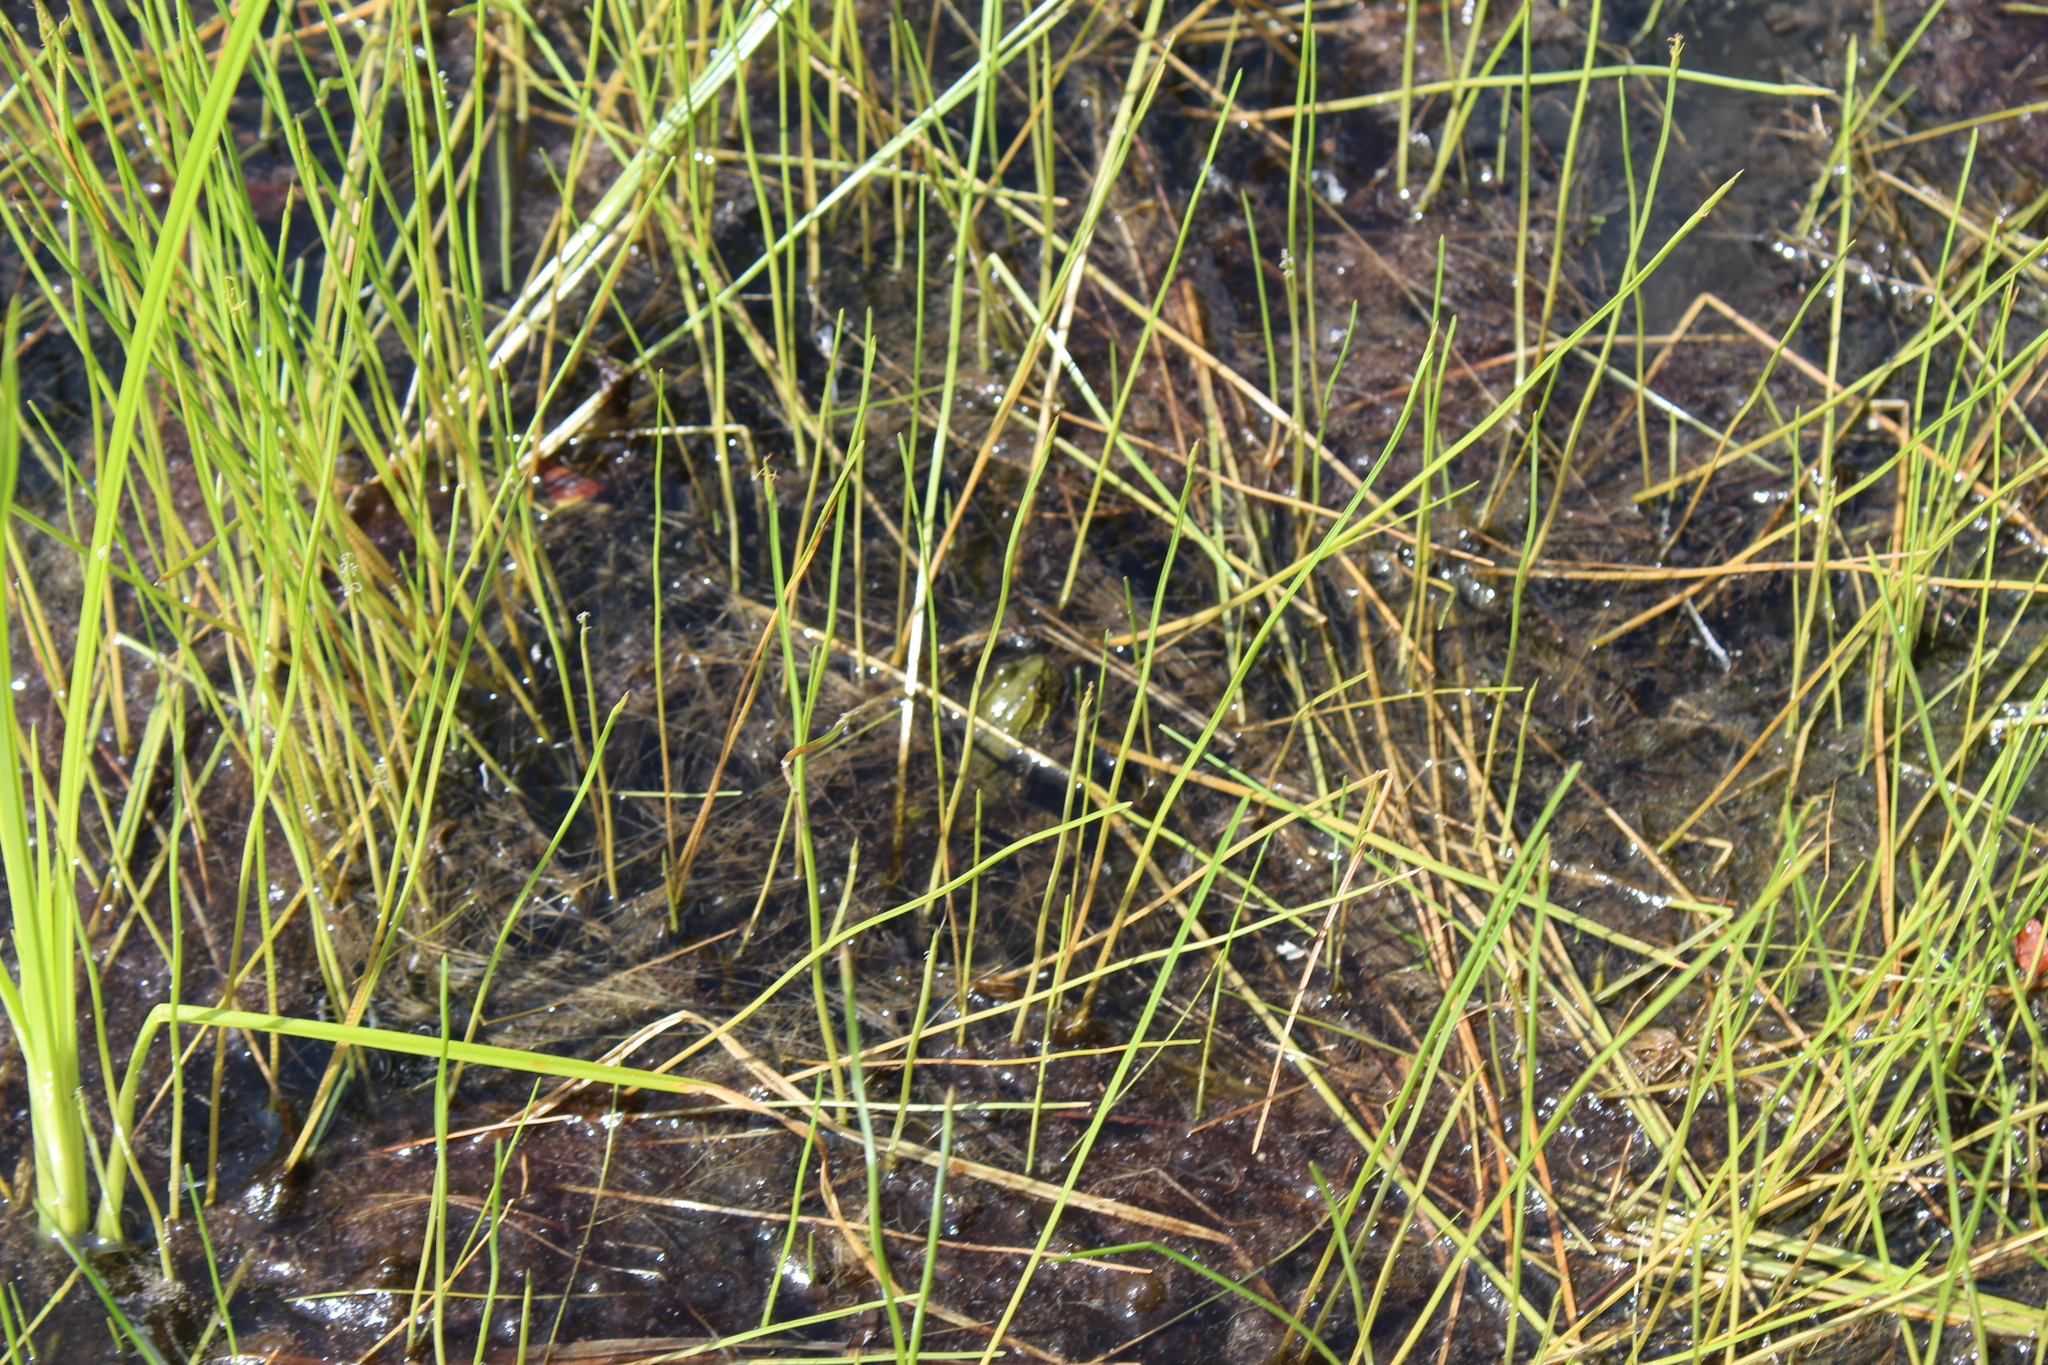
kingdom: Animalia
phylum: Chordata
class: Amphibia
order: Anura
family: Ranidae
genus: Lithobates
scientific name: Lithobates clamitans
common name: Green frog
